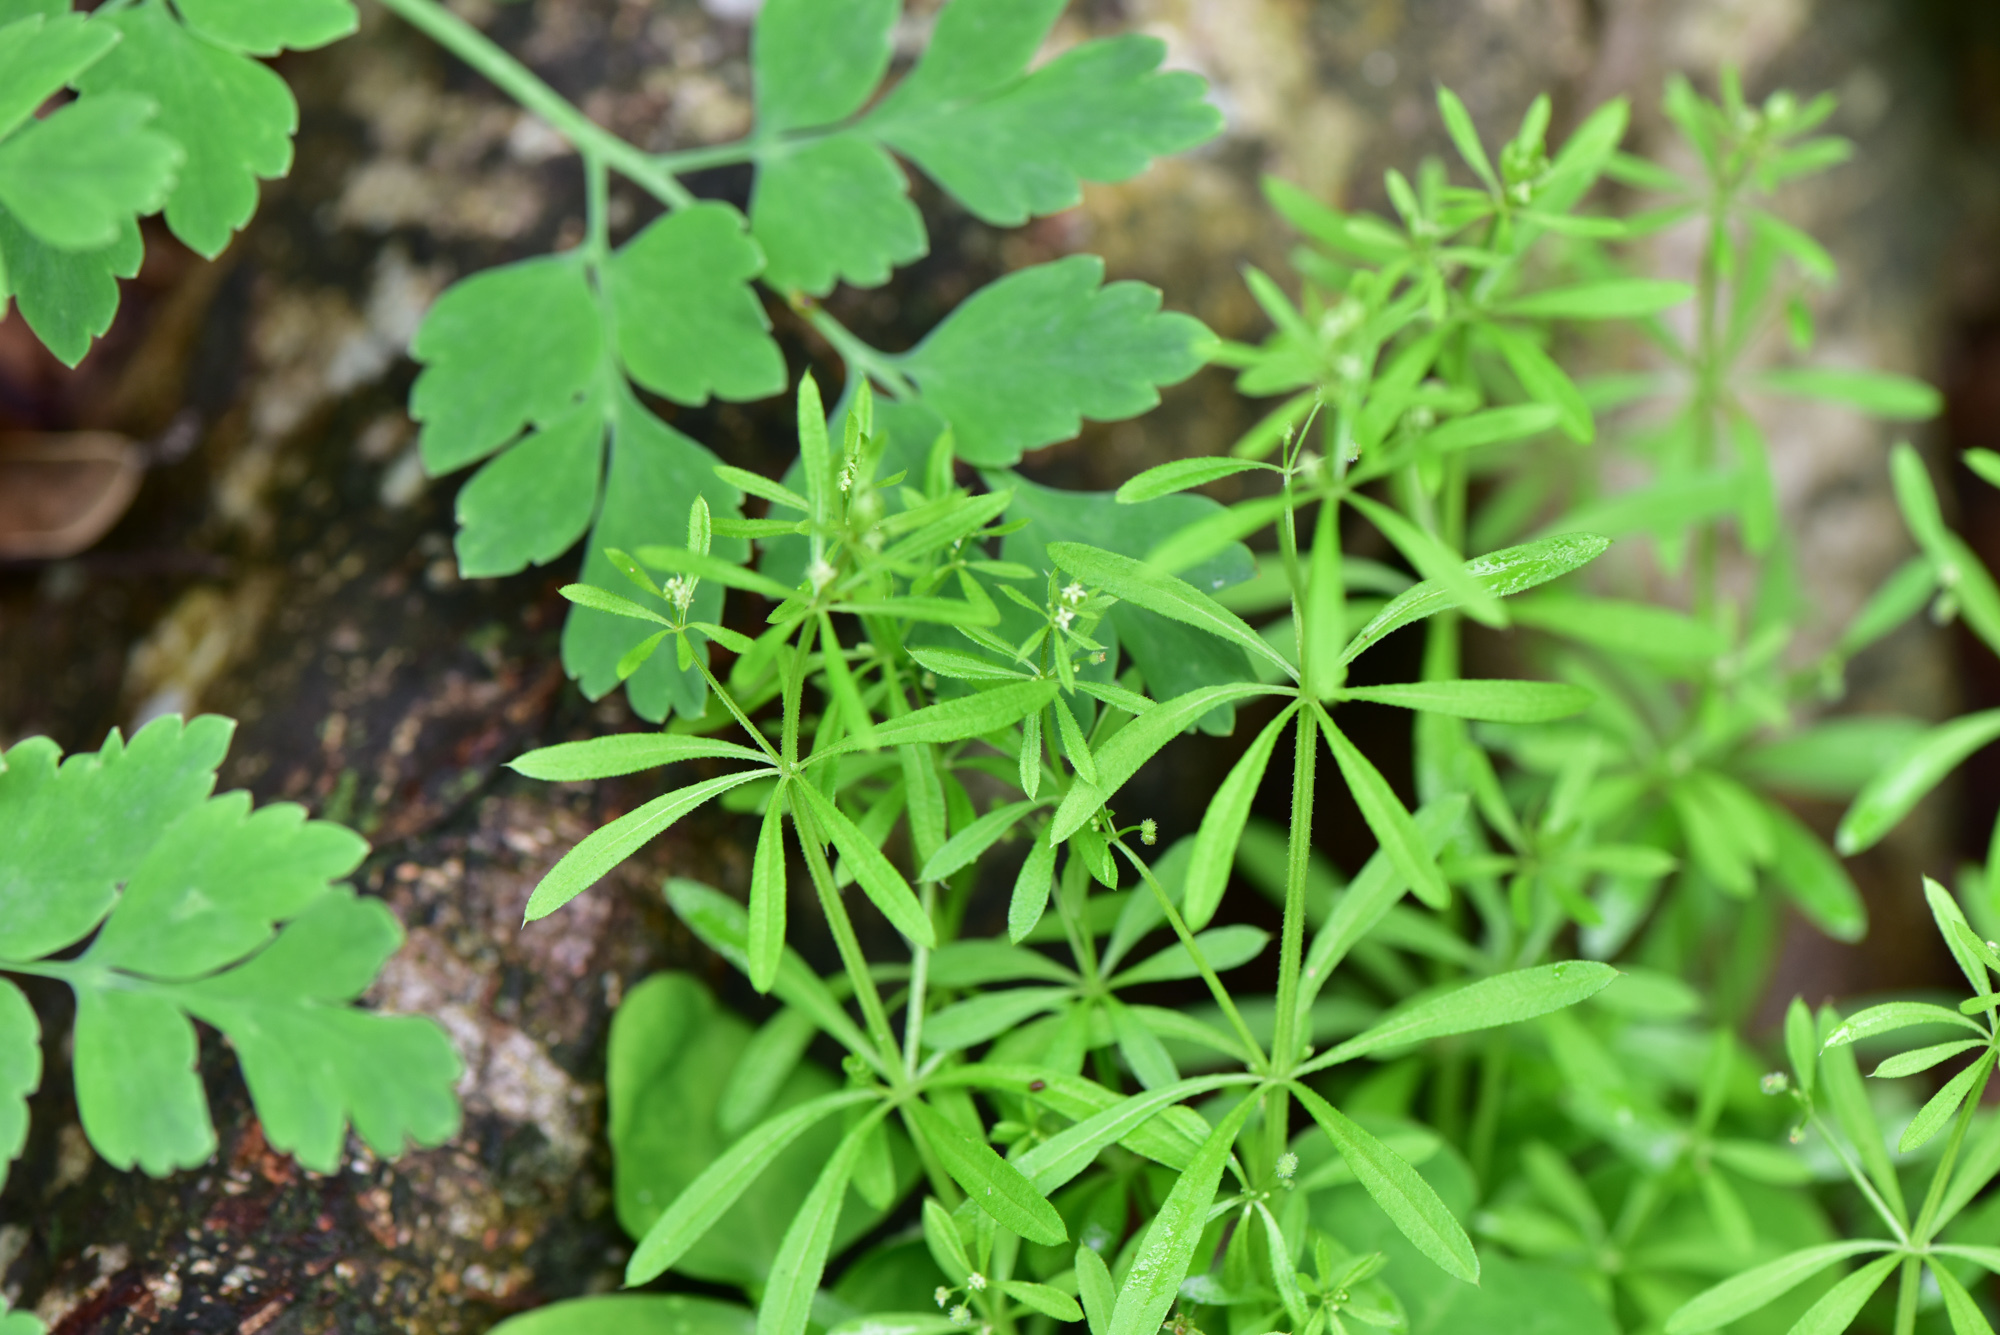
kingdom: Plantae
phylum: Tracheophyta
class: Magnoliopsida
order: Gentianales
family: Rubiaceae
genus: Galium
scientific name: Galium spurium
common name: False cleavers
